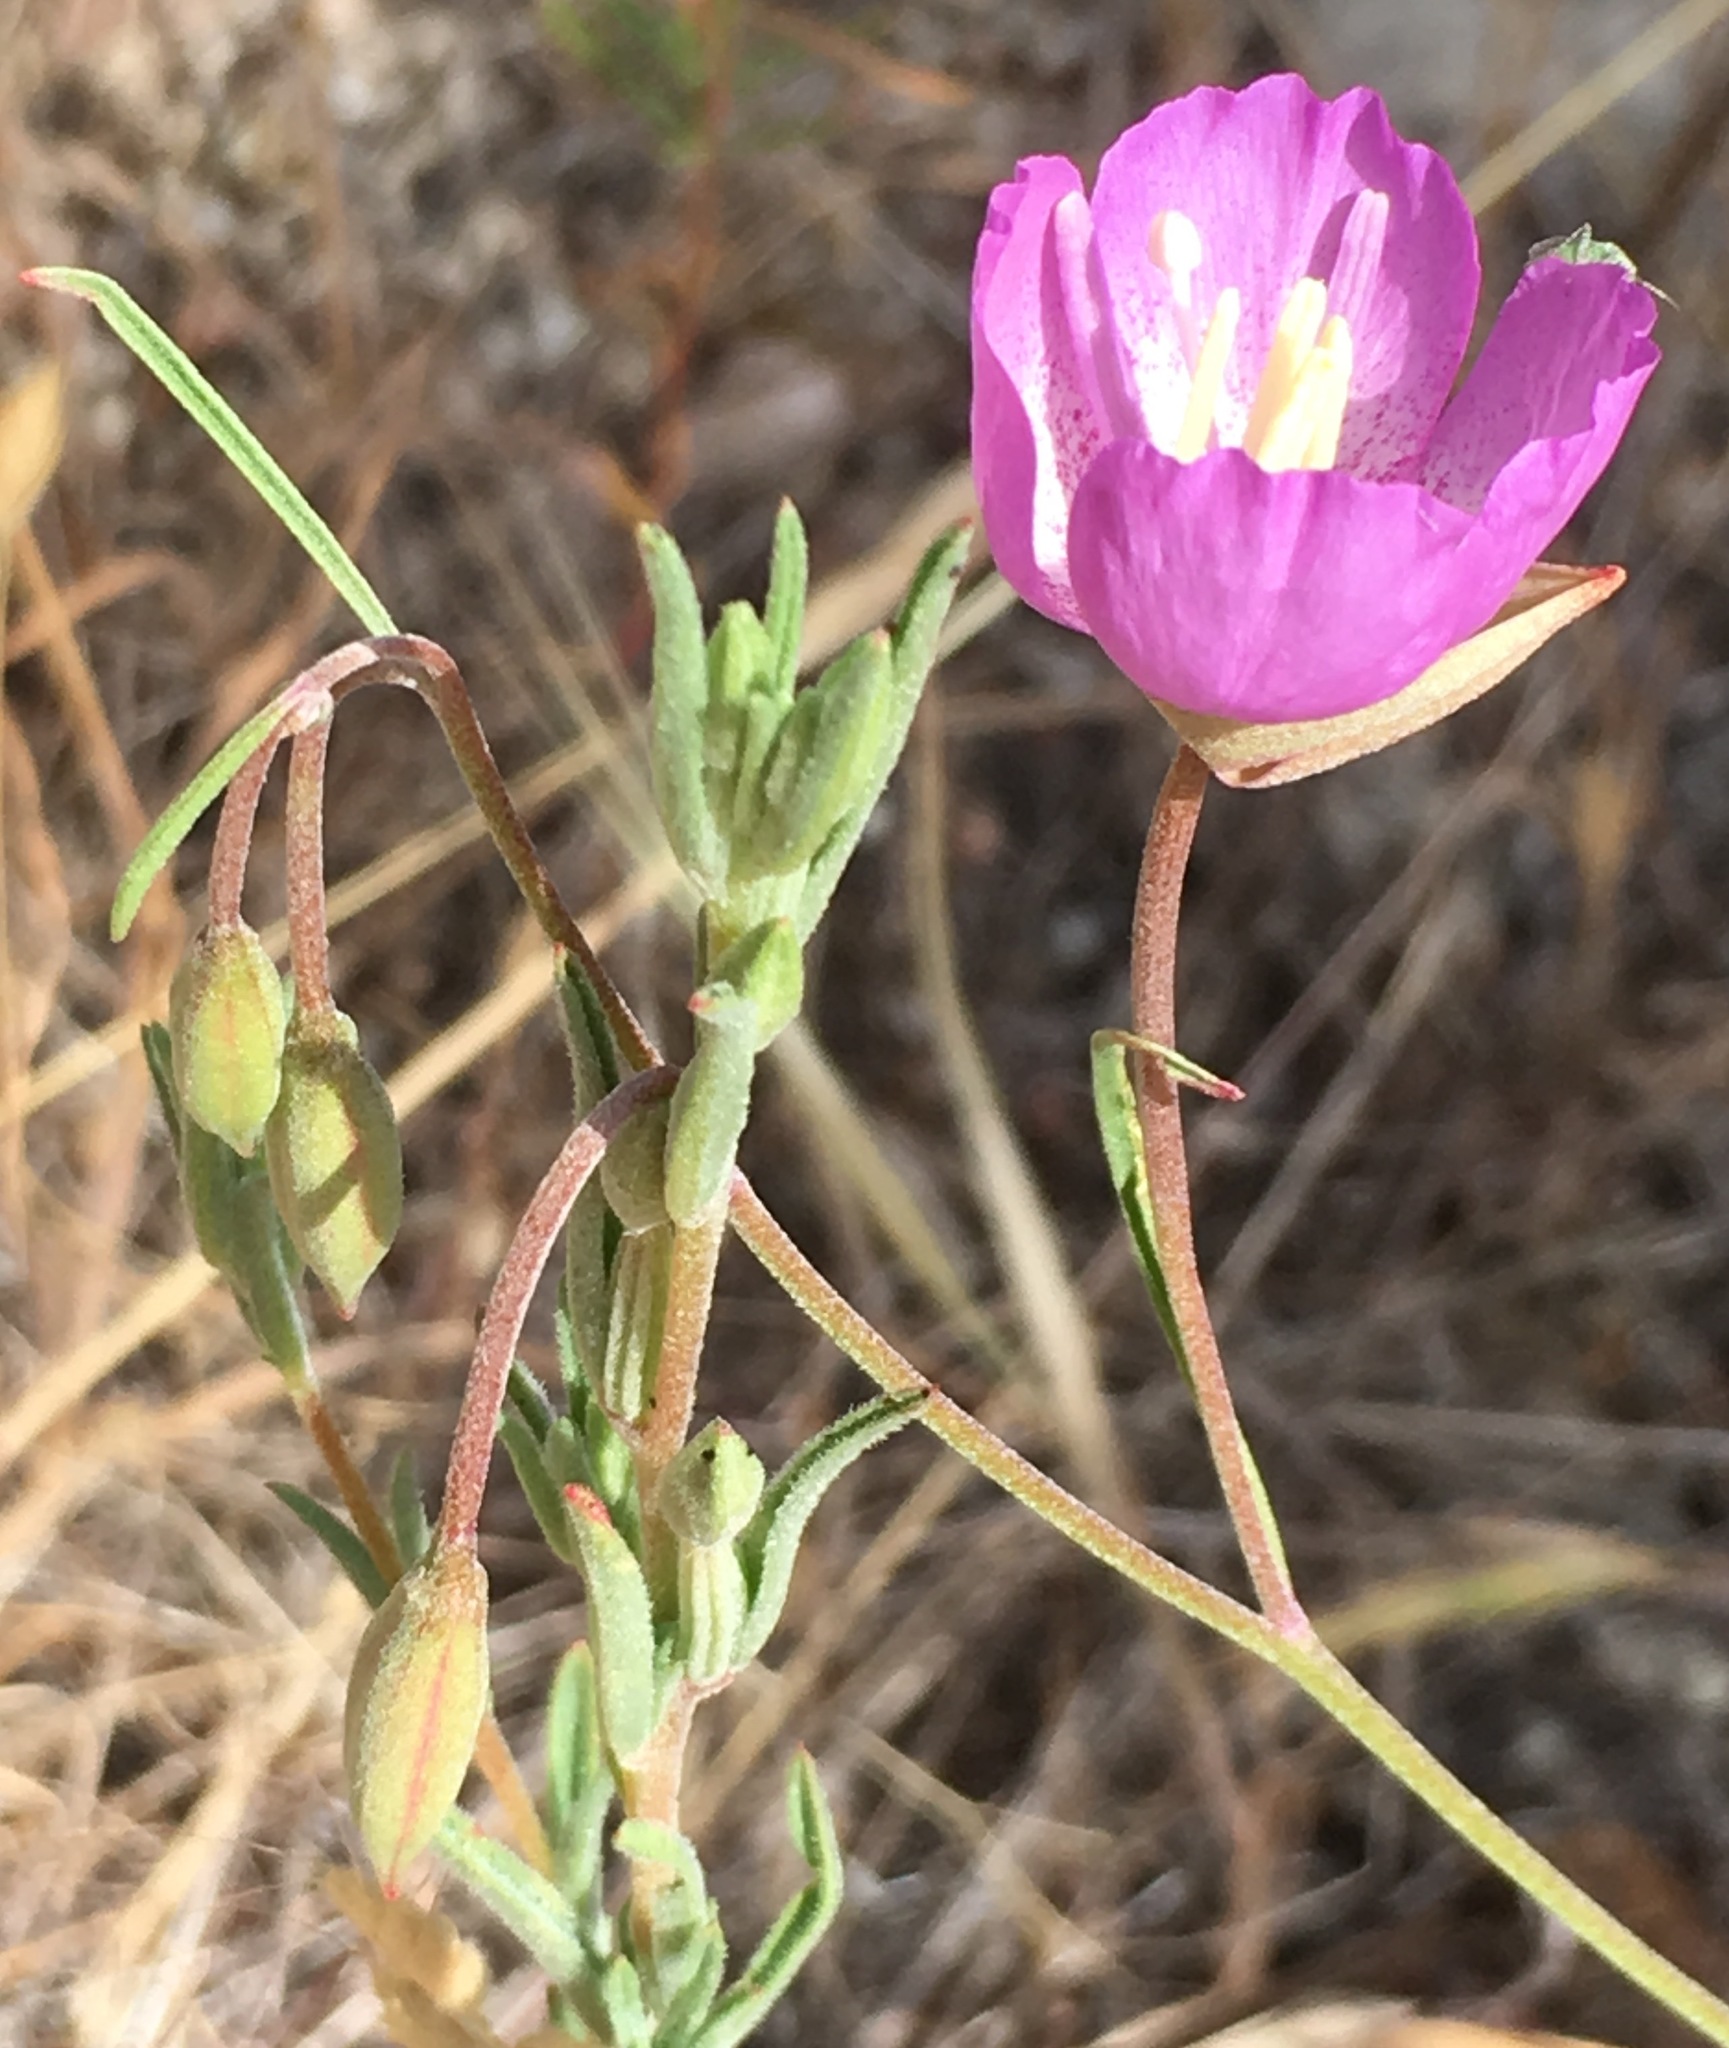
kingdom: Plantae
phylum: Tracheophyta
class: Magnoliopsida
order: Myrtales
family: Onagraceae
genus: Clarkia
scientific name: Clarkia cylindrica
